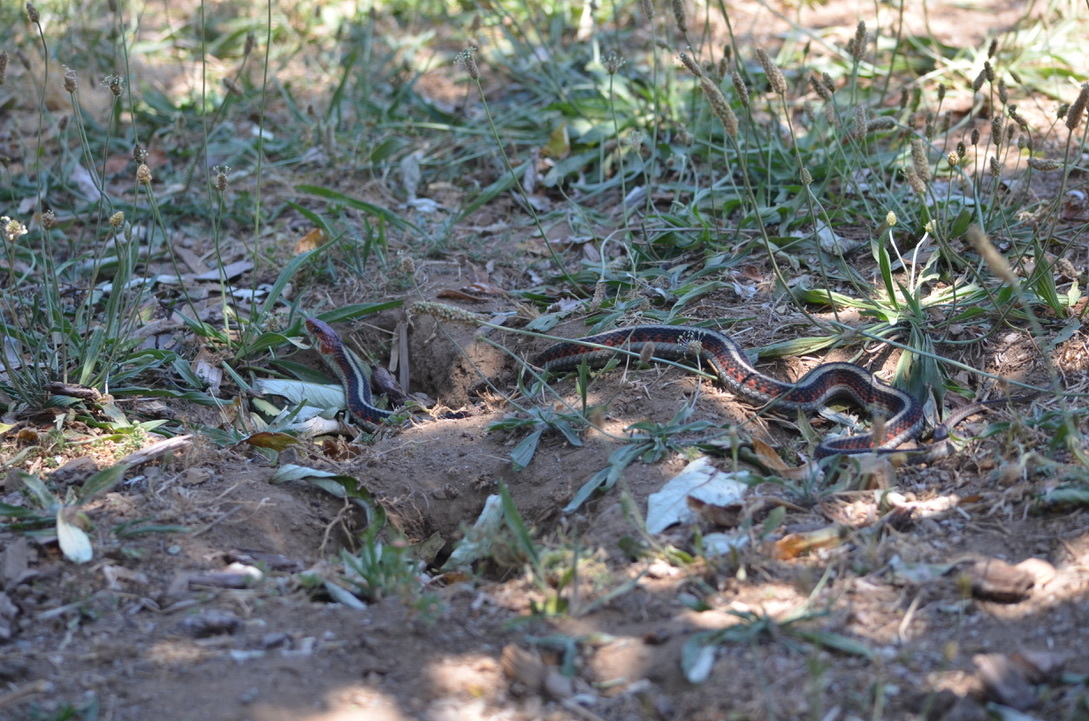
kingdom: Animalia
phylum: Chordata
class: Squamata
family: Colubridae
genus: Thamnophis
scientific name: Thamnophis sirtalis
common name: Common garter snake
